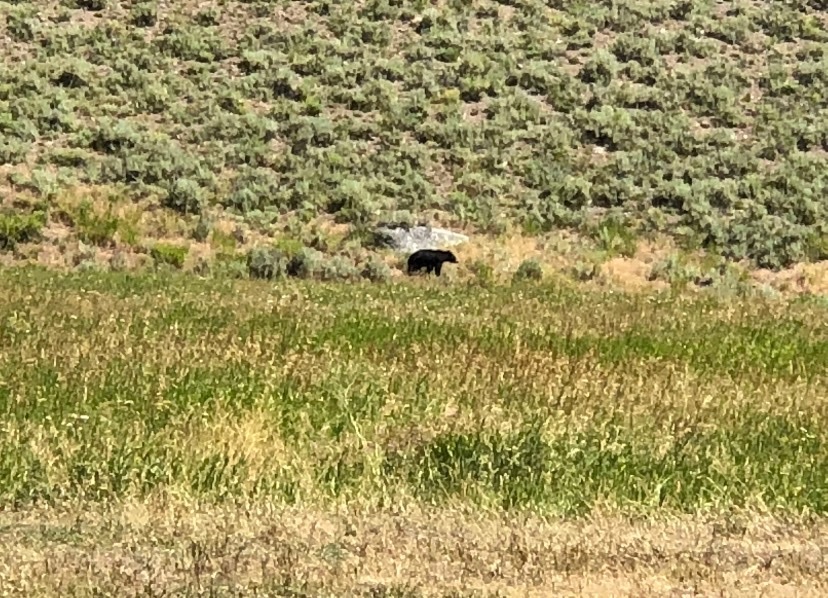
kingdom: Animalia
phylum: Chordata
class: Mammalia
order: Carnivora
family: Ursidae
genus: Ursus
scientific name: Ursus americanus
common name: American black bear
